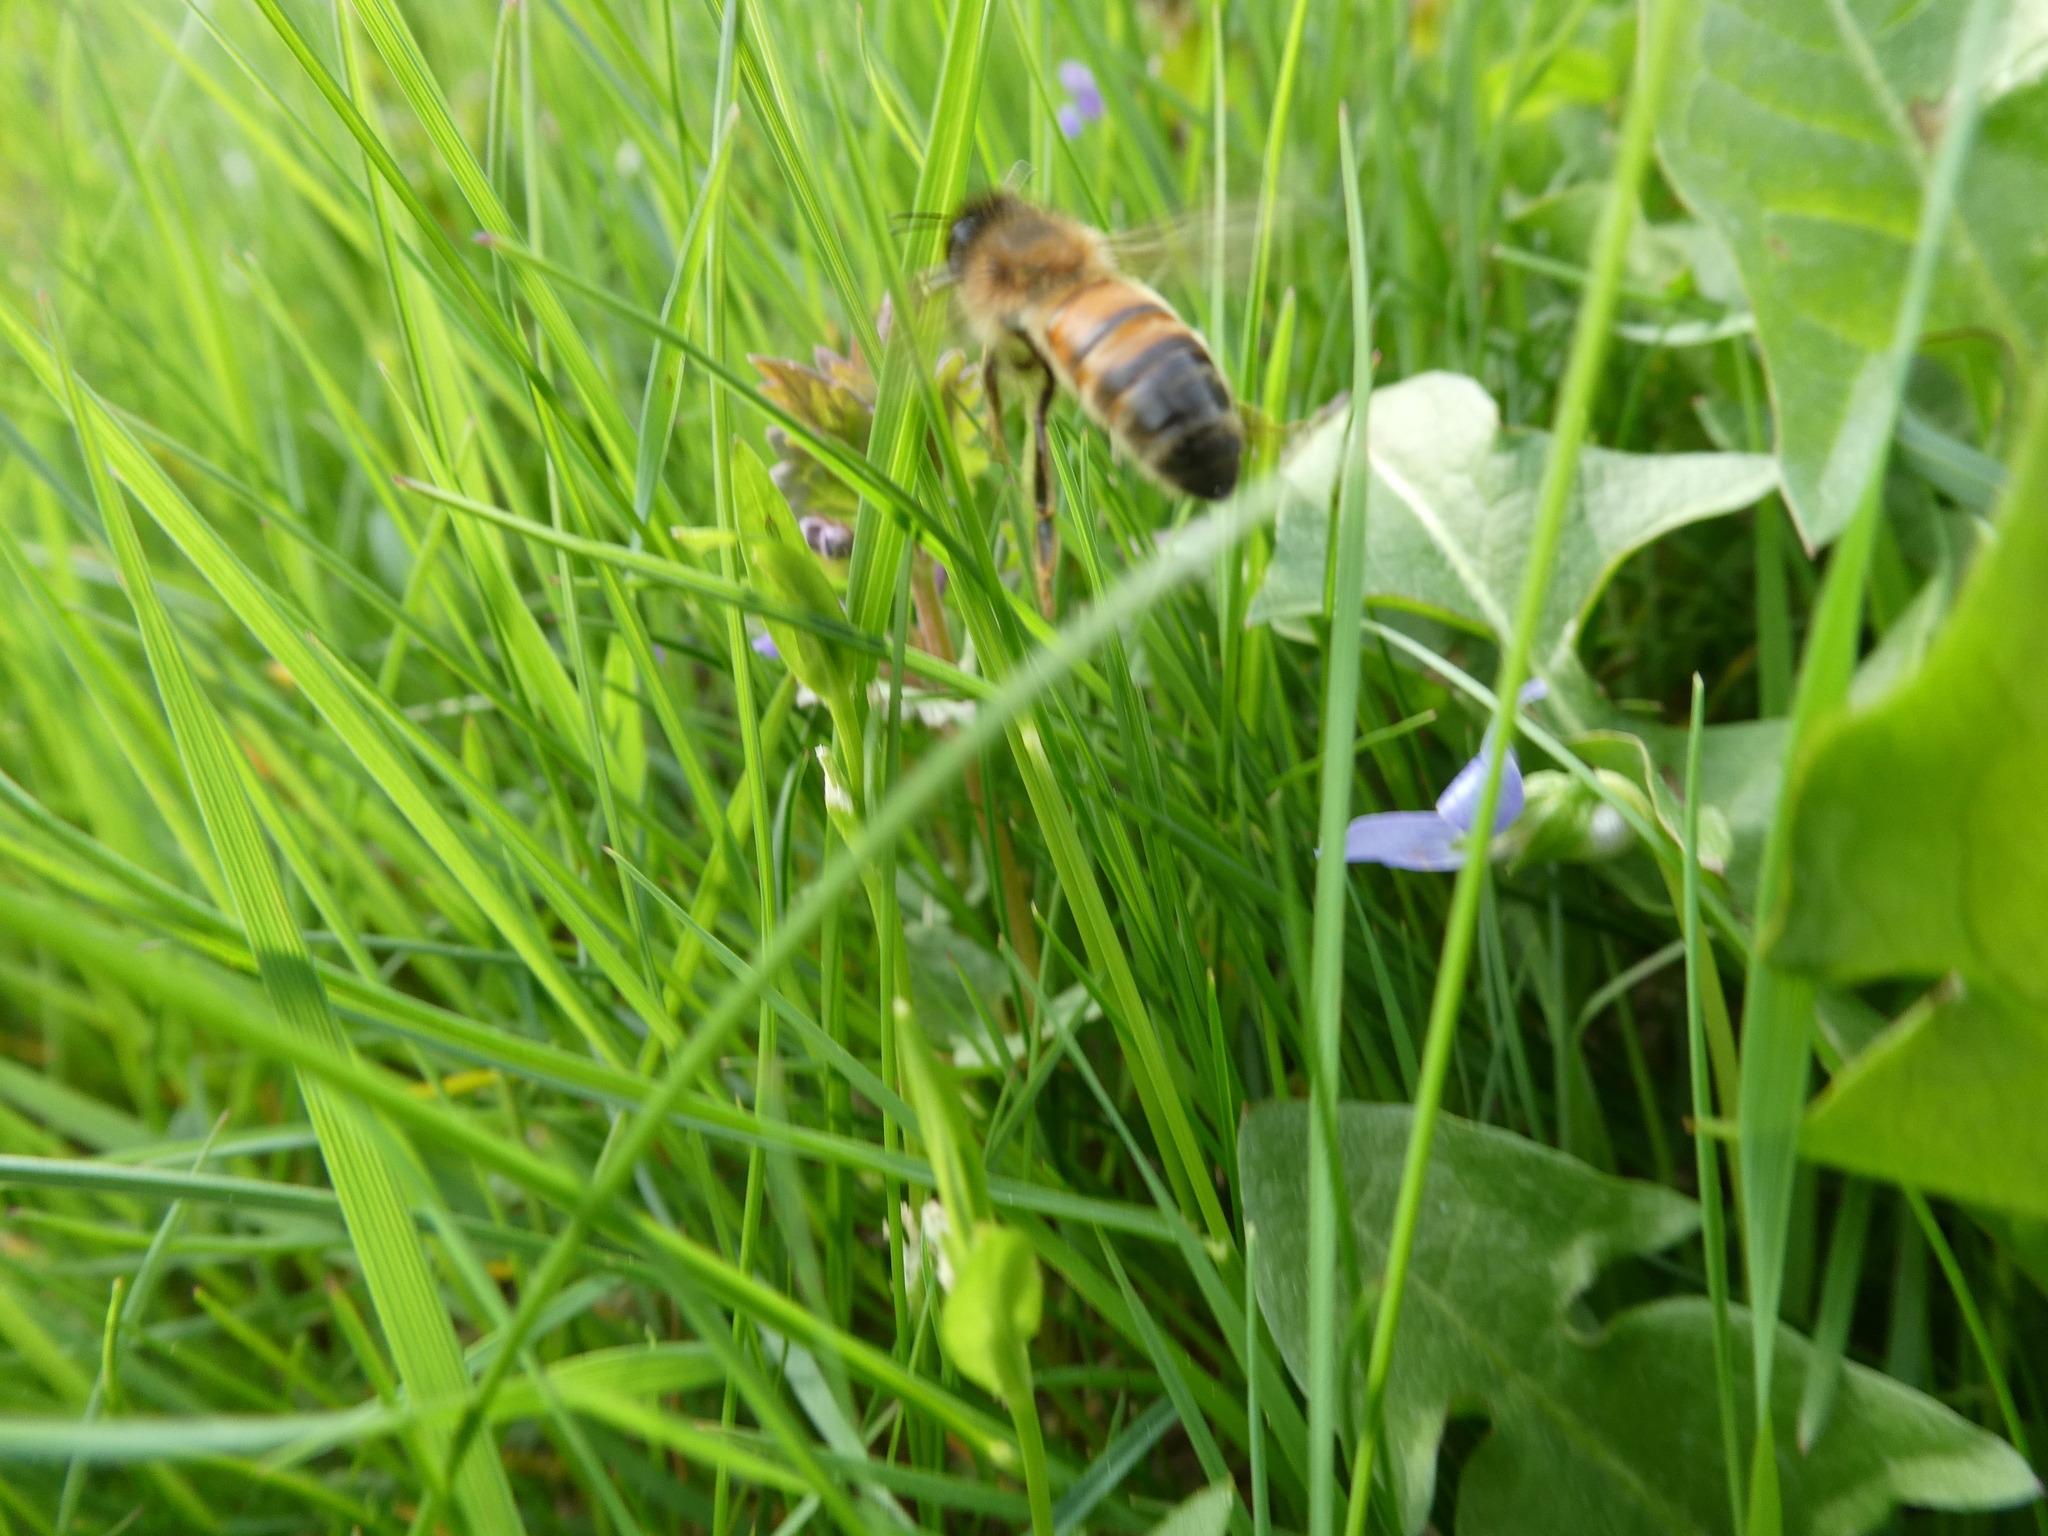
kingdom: Animalia
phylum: Arthropoda
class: Insecta
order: Hymenoptera
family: Apidae
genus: Apis
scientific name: Apis mellifera
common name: Honey bee
